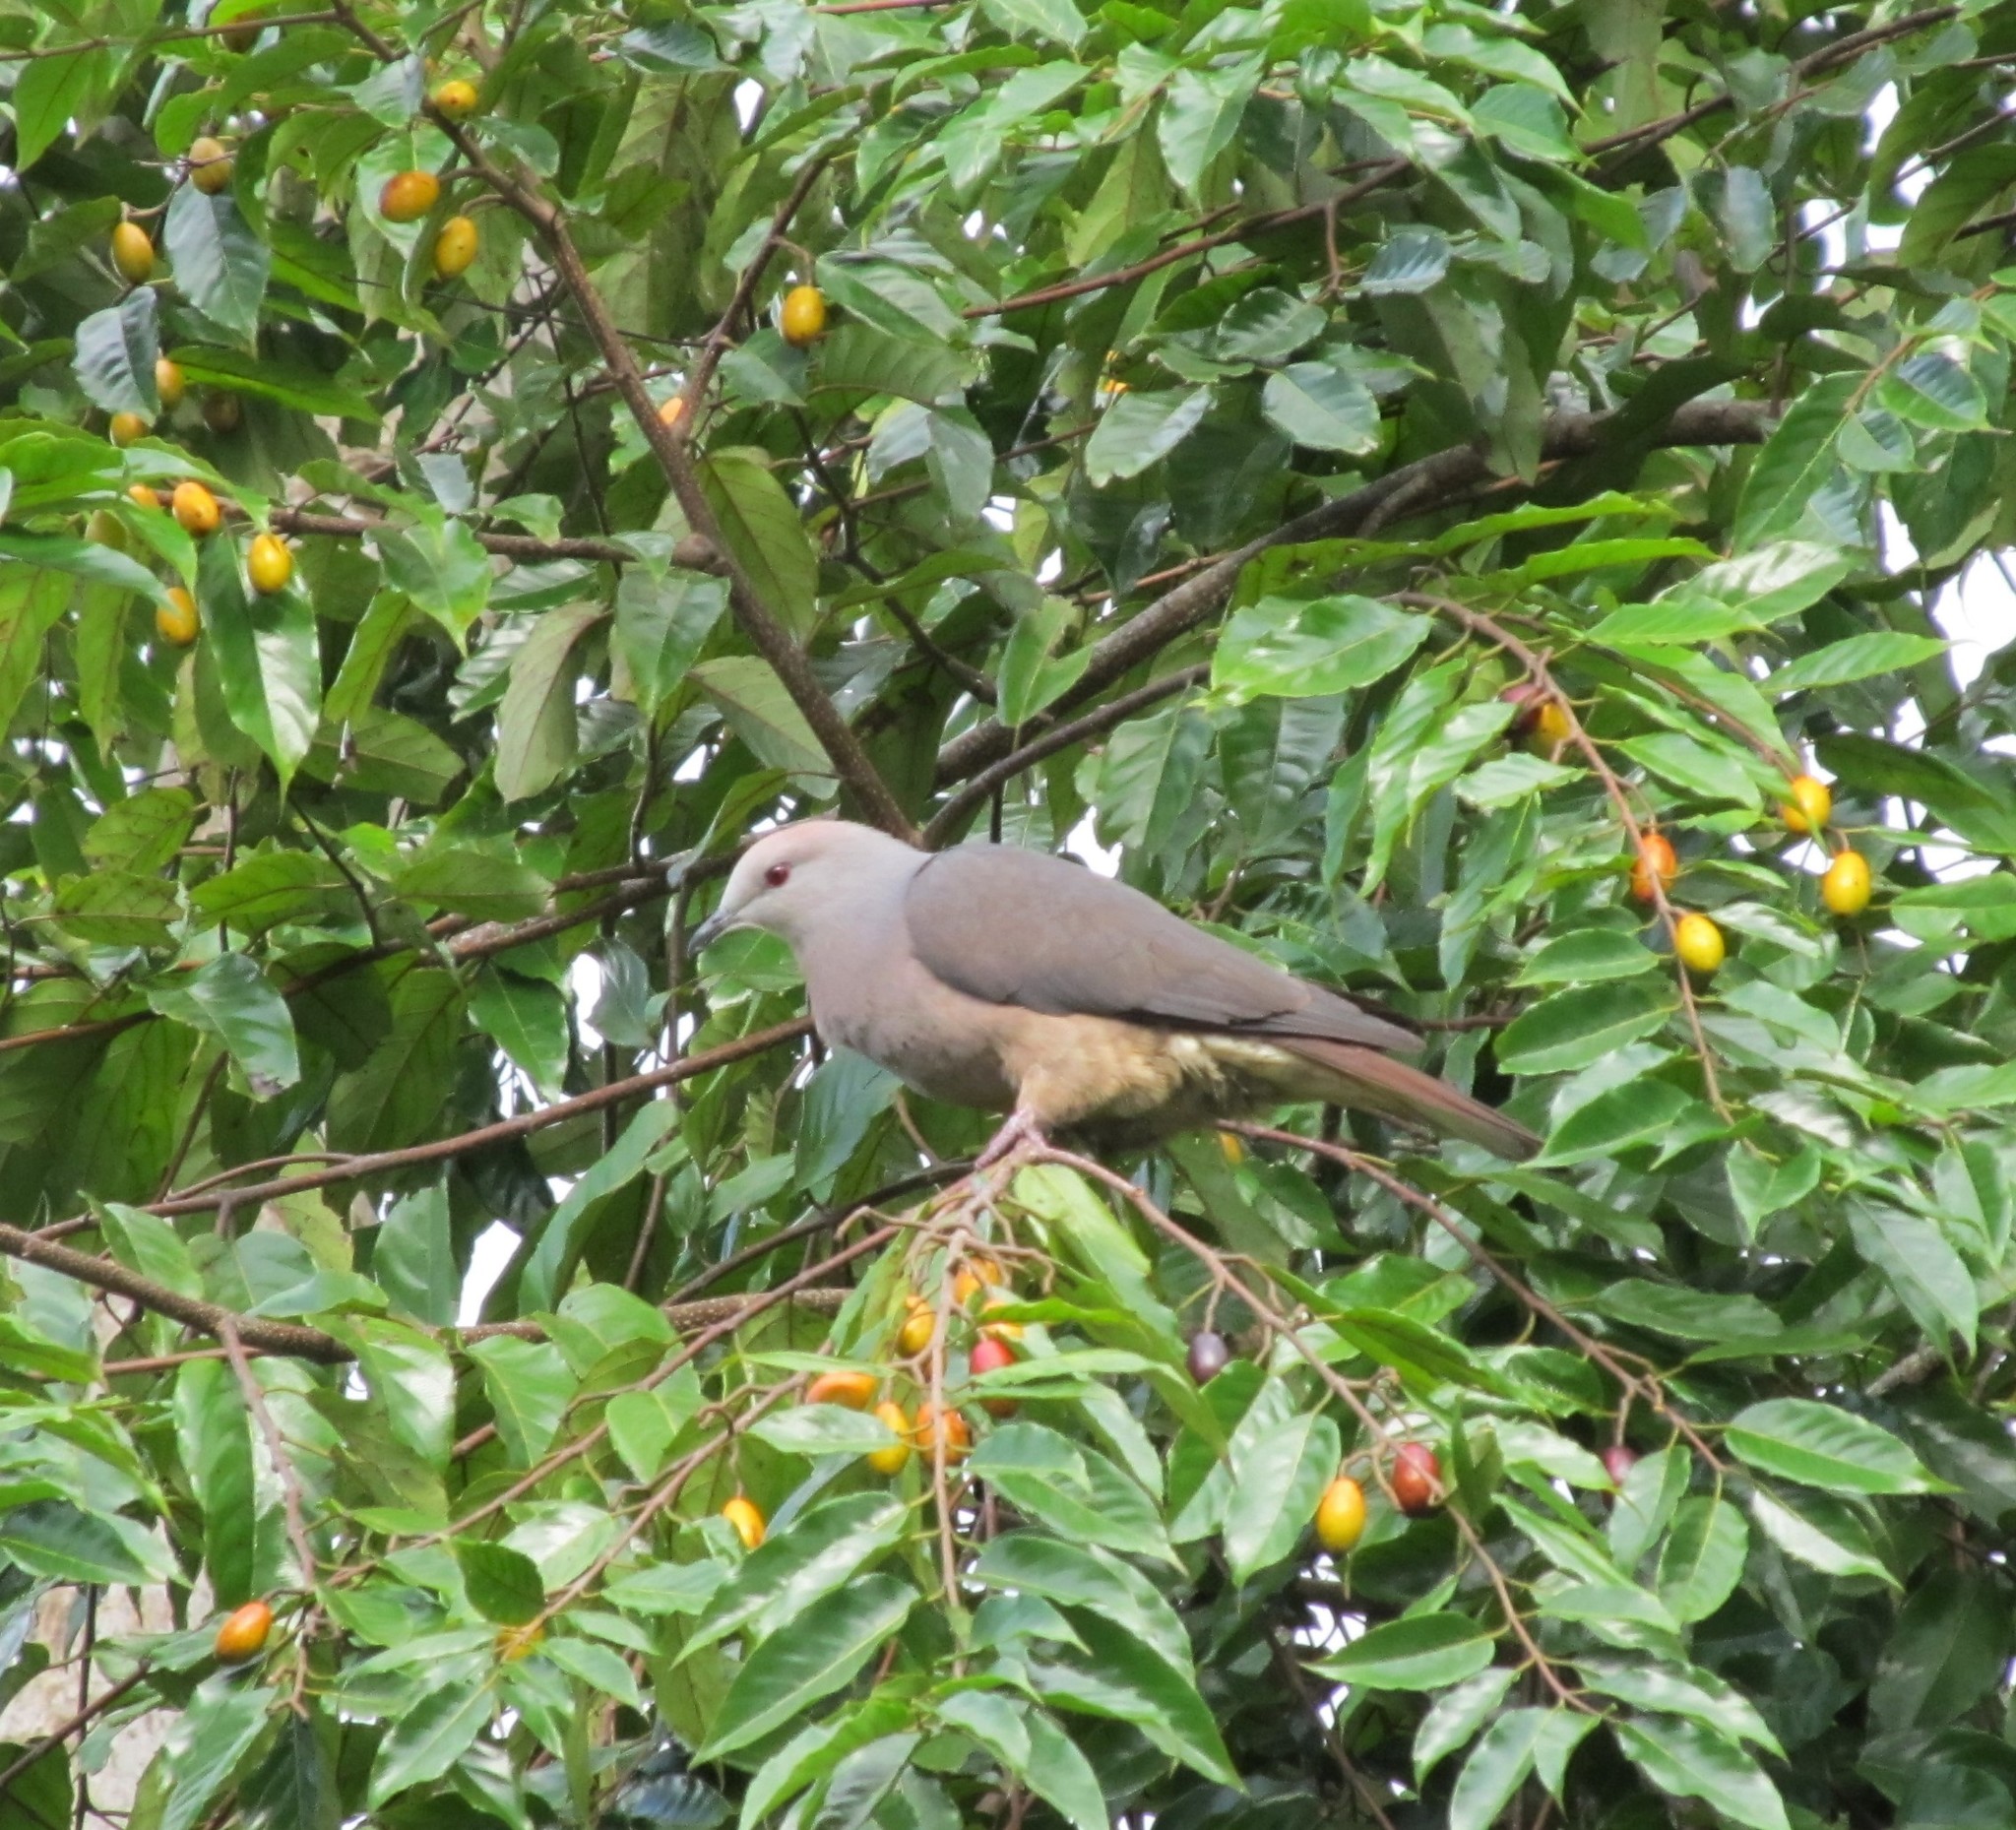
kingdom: Animalia
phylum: Chordata
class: Aves
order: Columbiformes
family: Columbidae
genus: Ducula
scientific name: Ducula latrans
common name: Barking imperial pigeon
